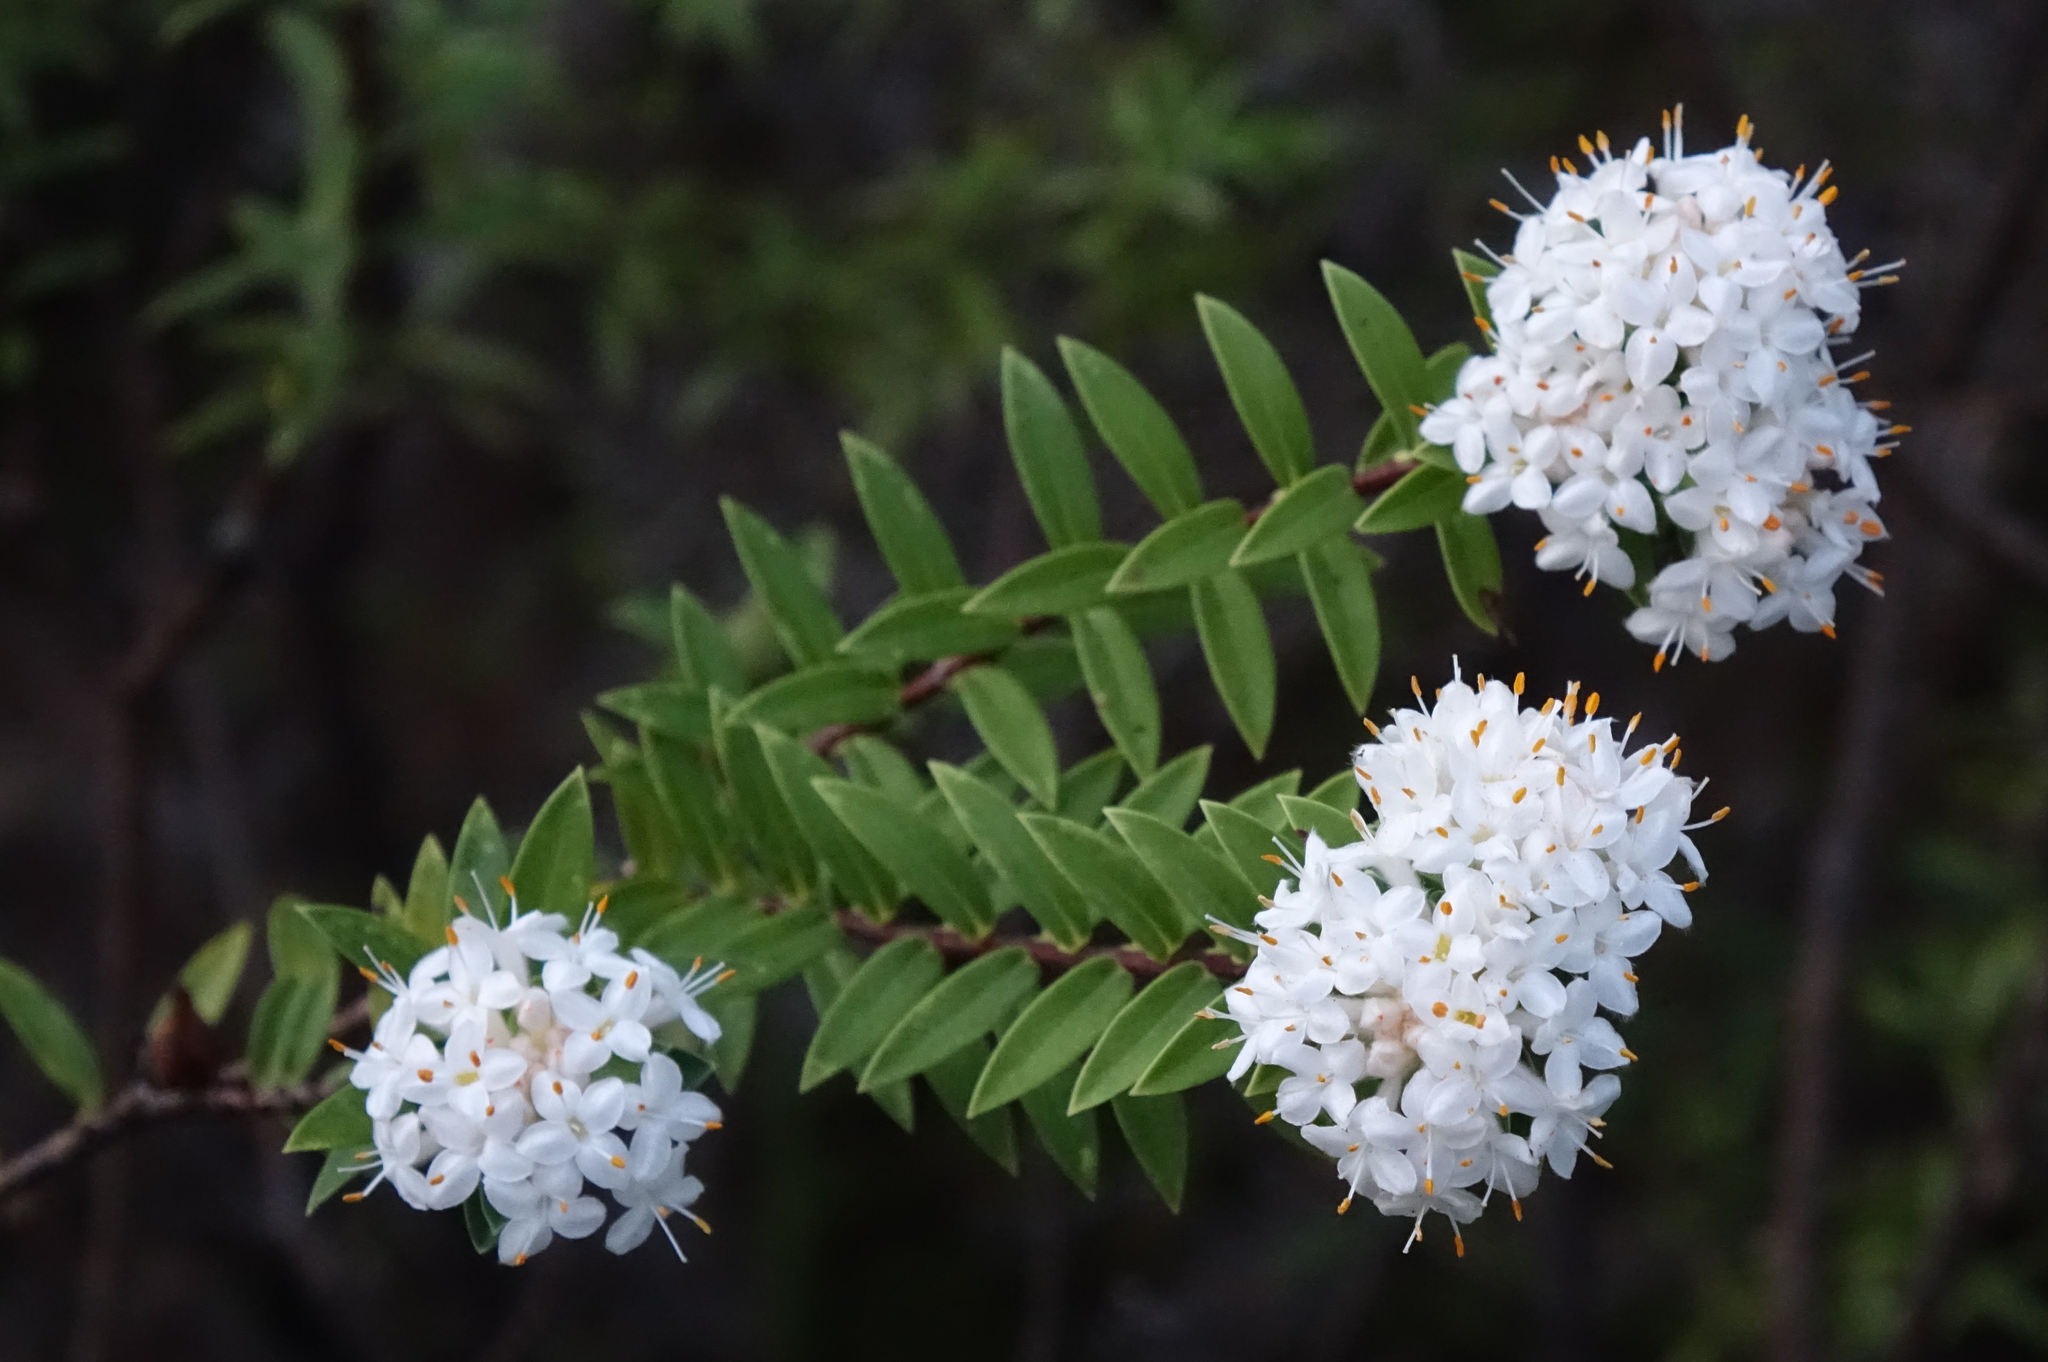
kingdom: Plantae
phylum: Tracheophyta
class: Magnoliopsida
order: Malvales
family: Thymelaeaceae
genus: Pimelea
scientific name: Pimelea longifolia
